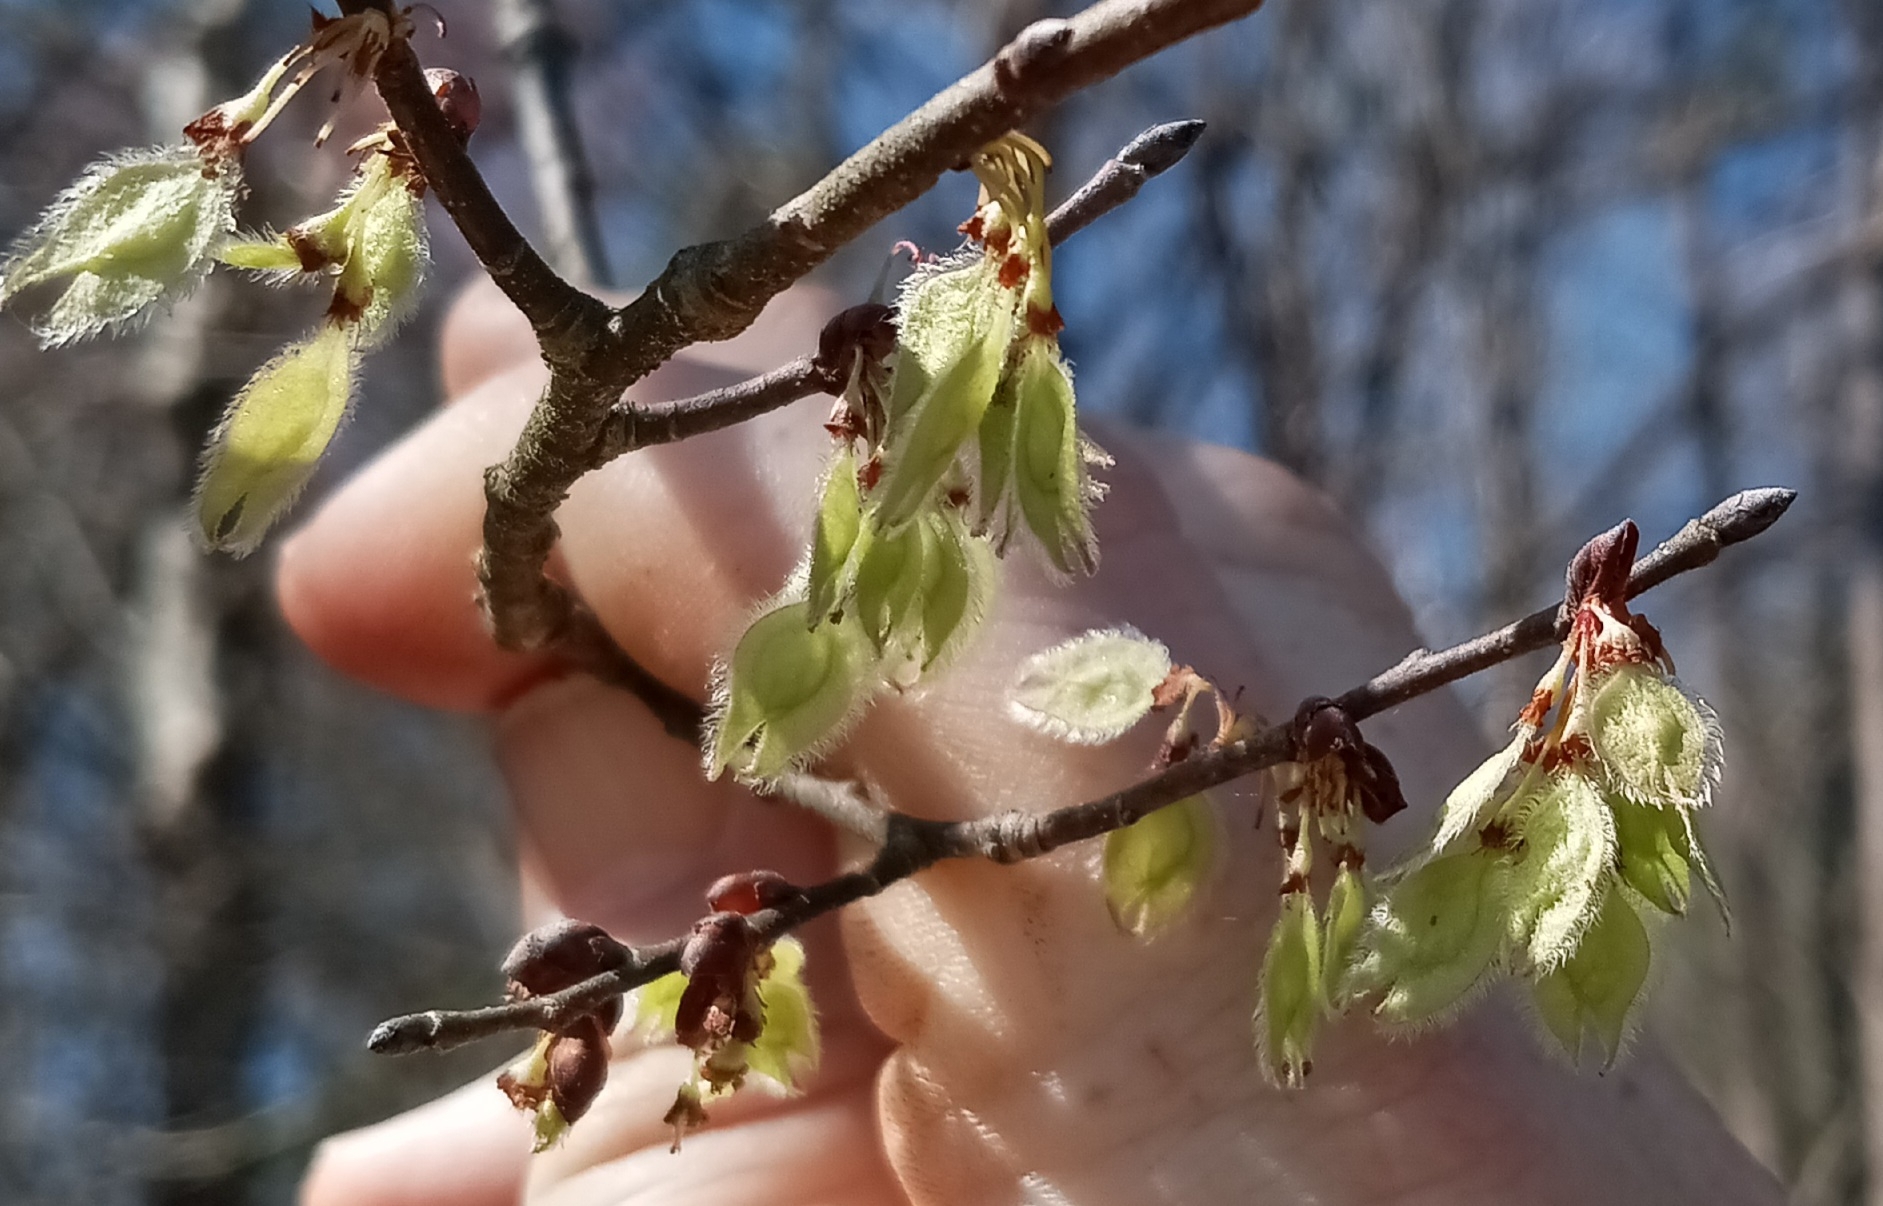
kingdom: Plantae
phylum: Tracheophyta
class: Magnoliopsida
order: Rosales
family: Ulmaceae
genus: Ulmus
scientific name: Ulmus americana
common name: American elm
